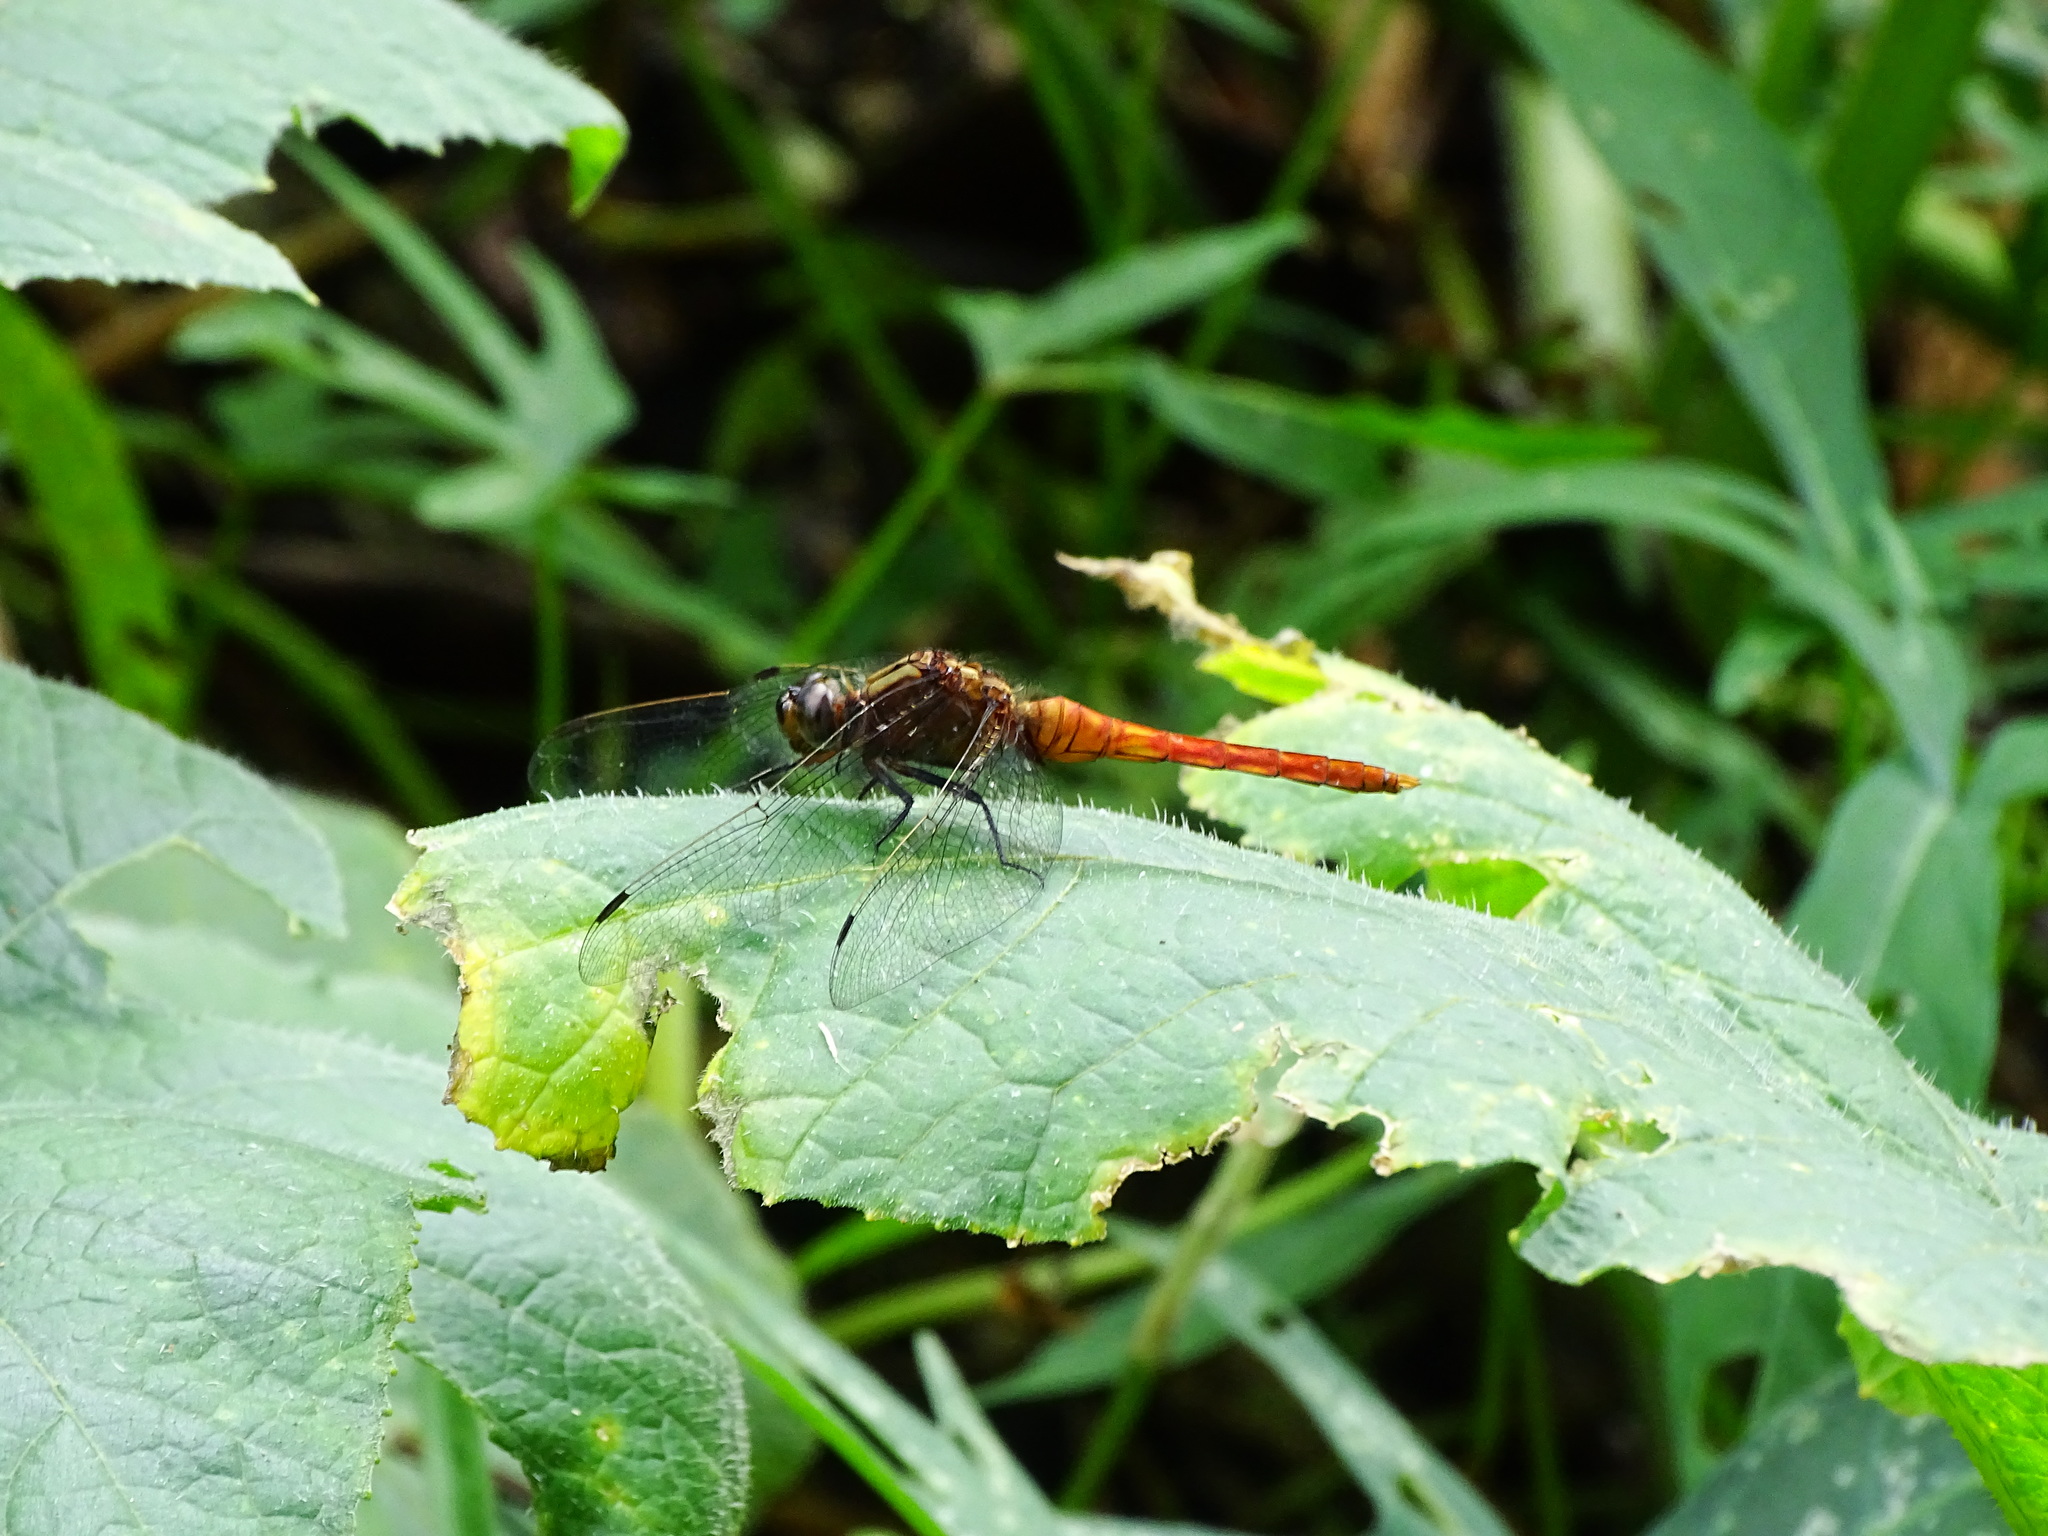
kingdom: Animalia
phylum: Arthropoda
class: Insecta
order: Odonata
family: Libellulidae
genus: Orthetrum
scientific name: Orthetrum pruinosum
